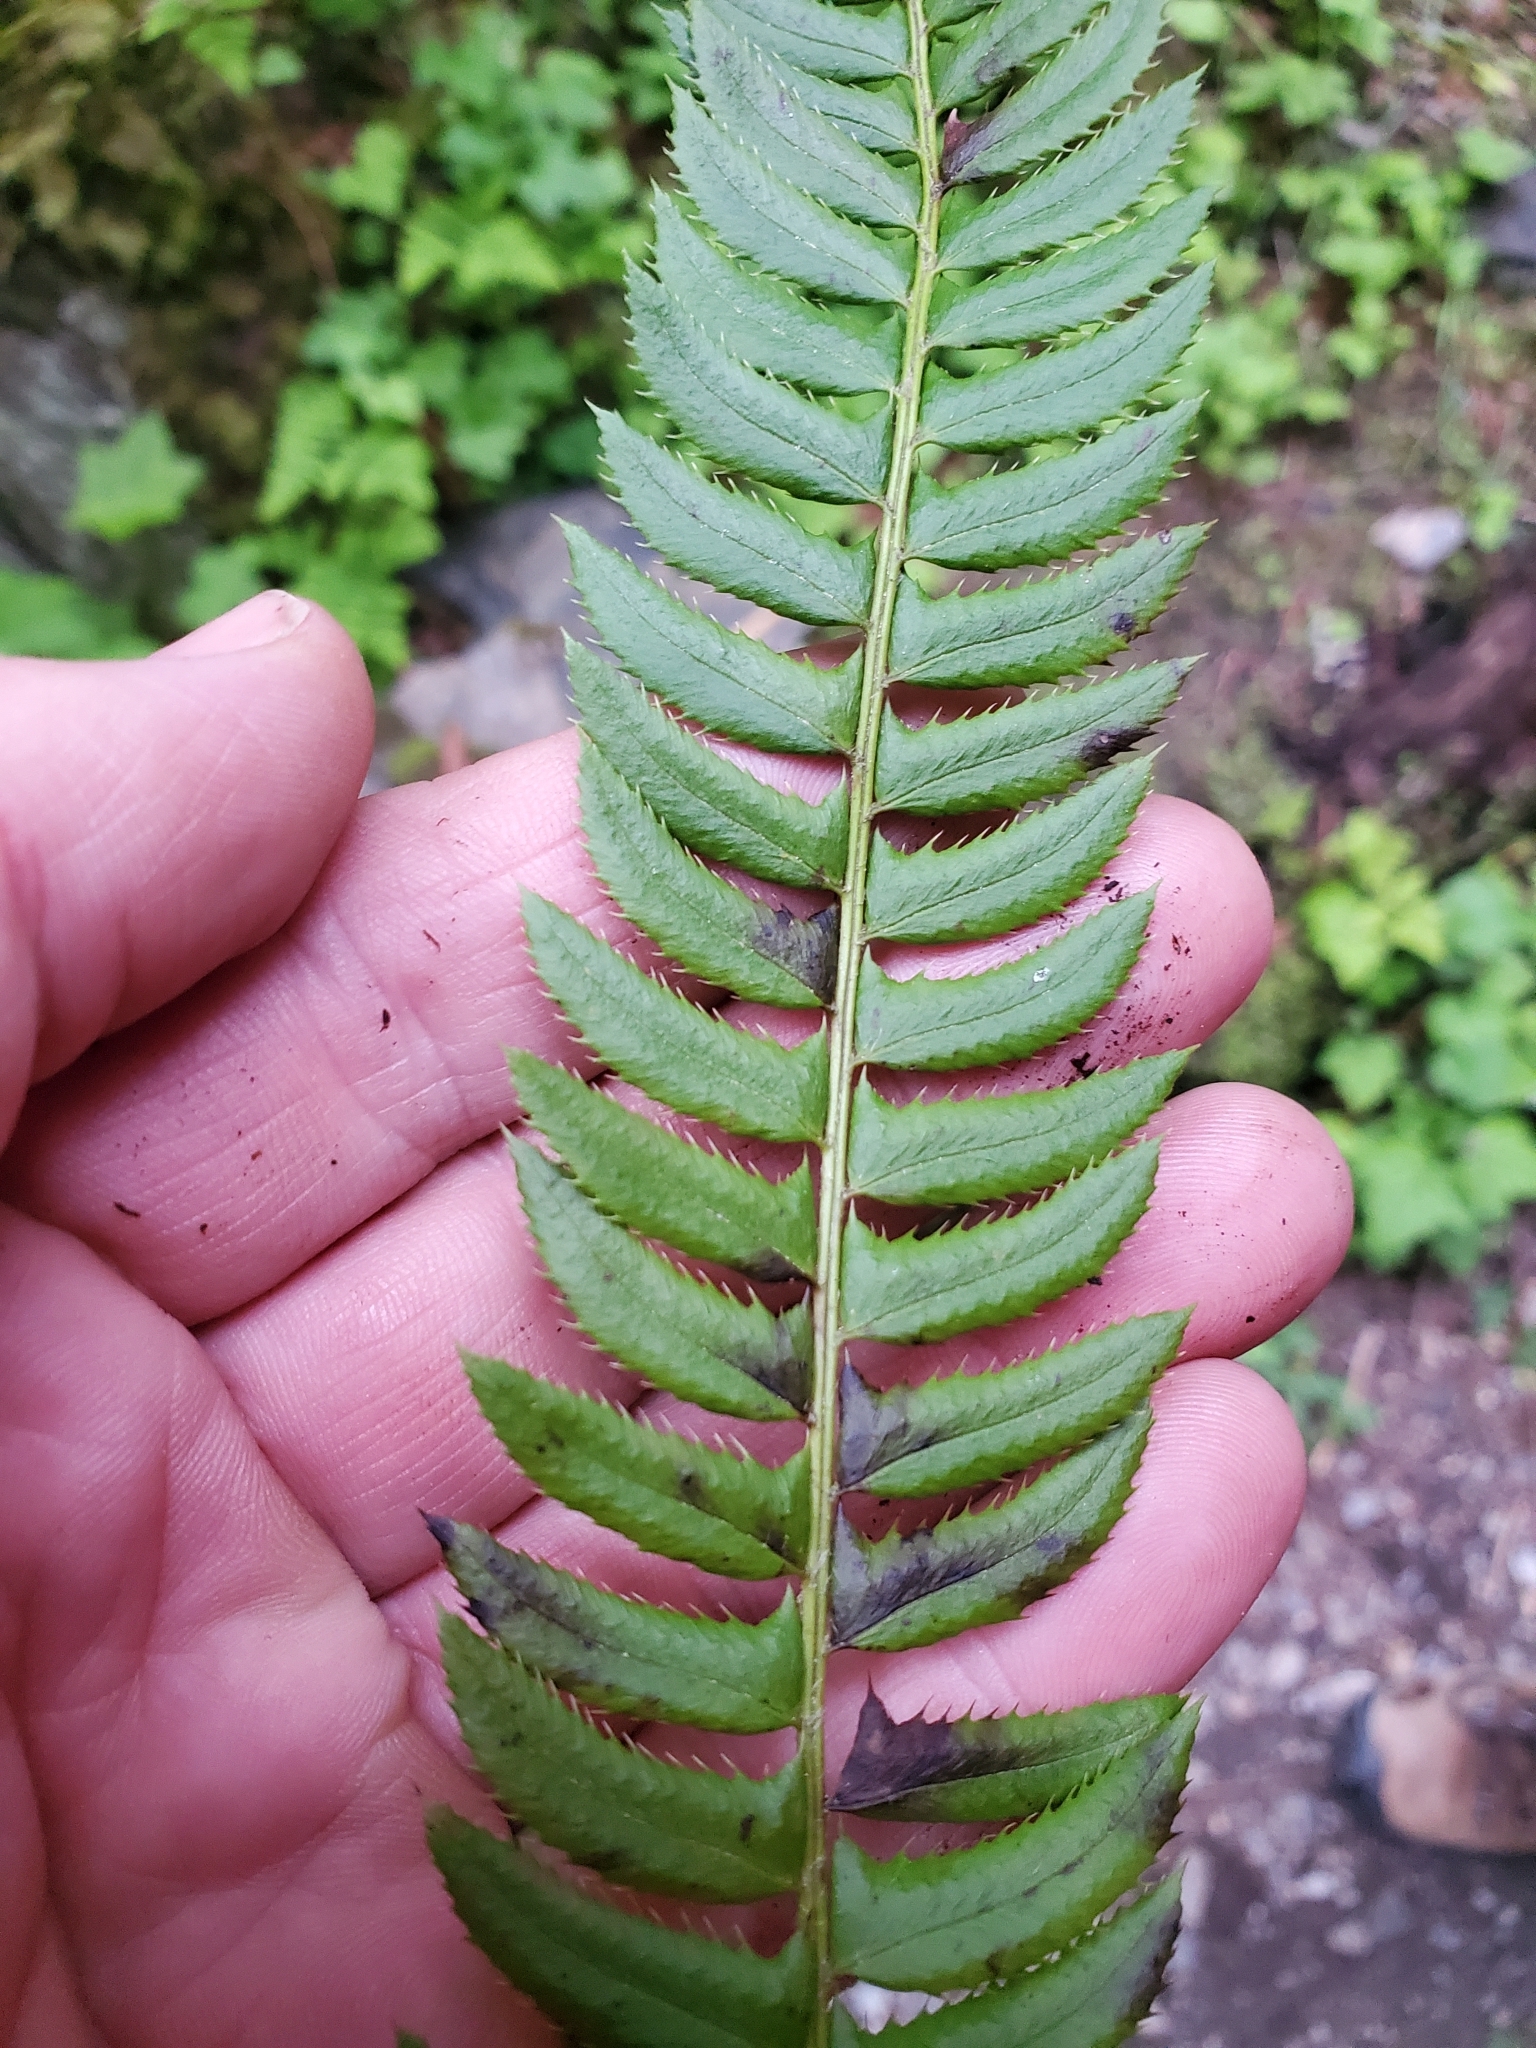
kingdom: Plantae
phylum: Tracheophyta
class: Polypodiopsida
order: Polypodiales
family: Dryopteridaceae
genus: Polystichum
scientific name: Polystichum lonchitis
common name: Holly fern
